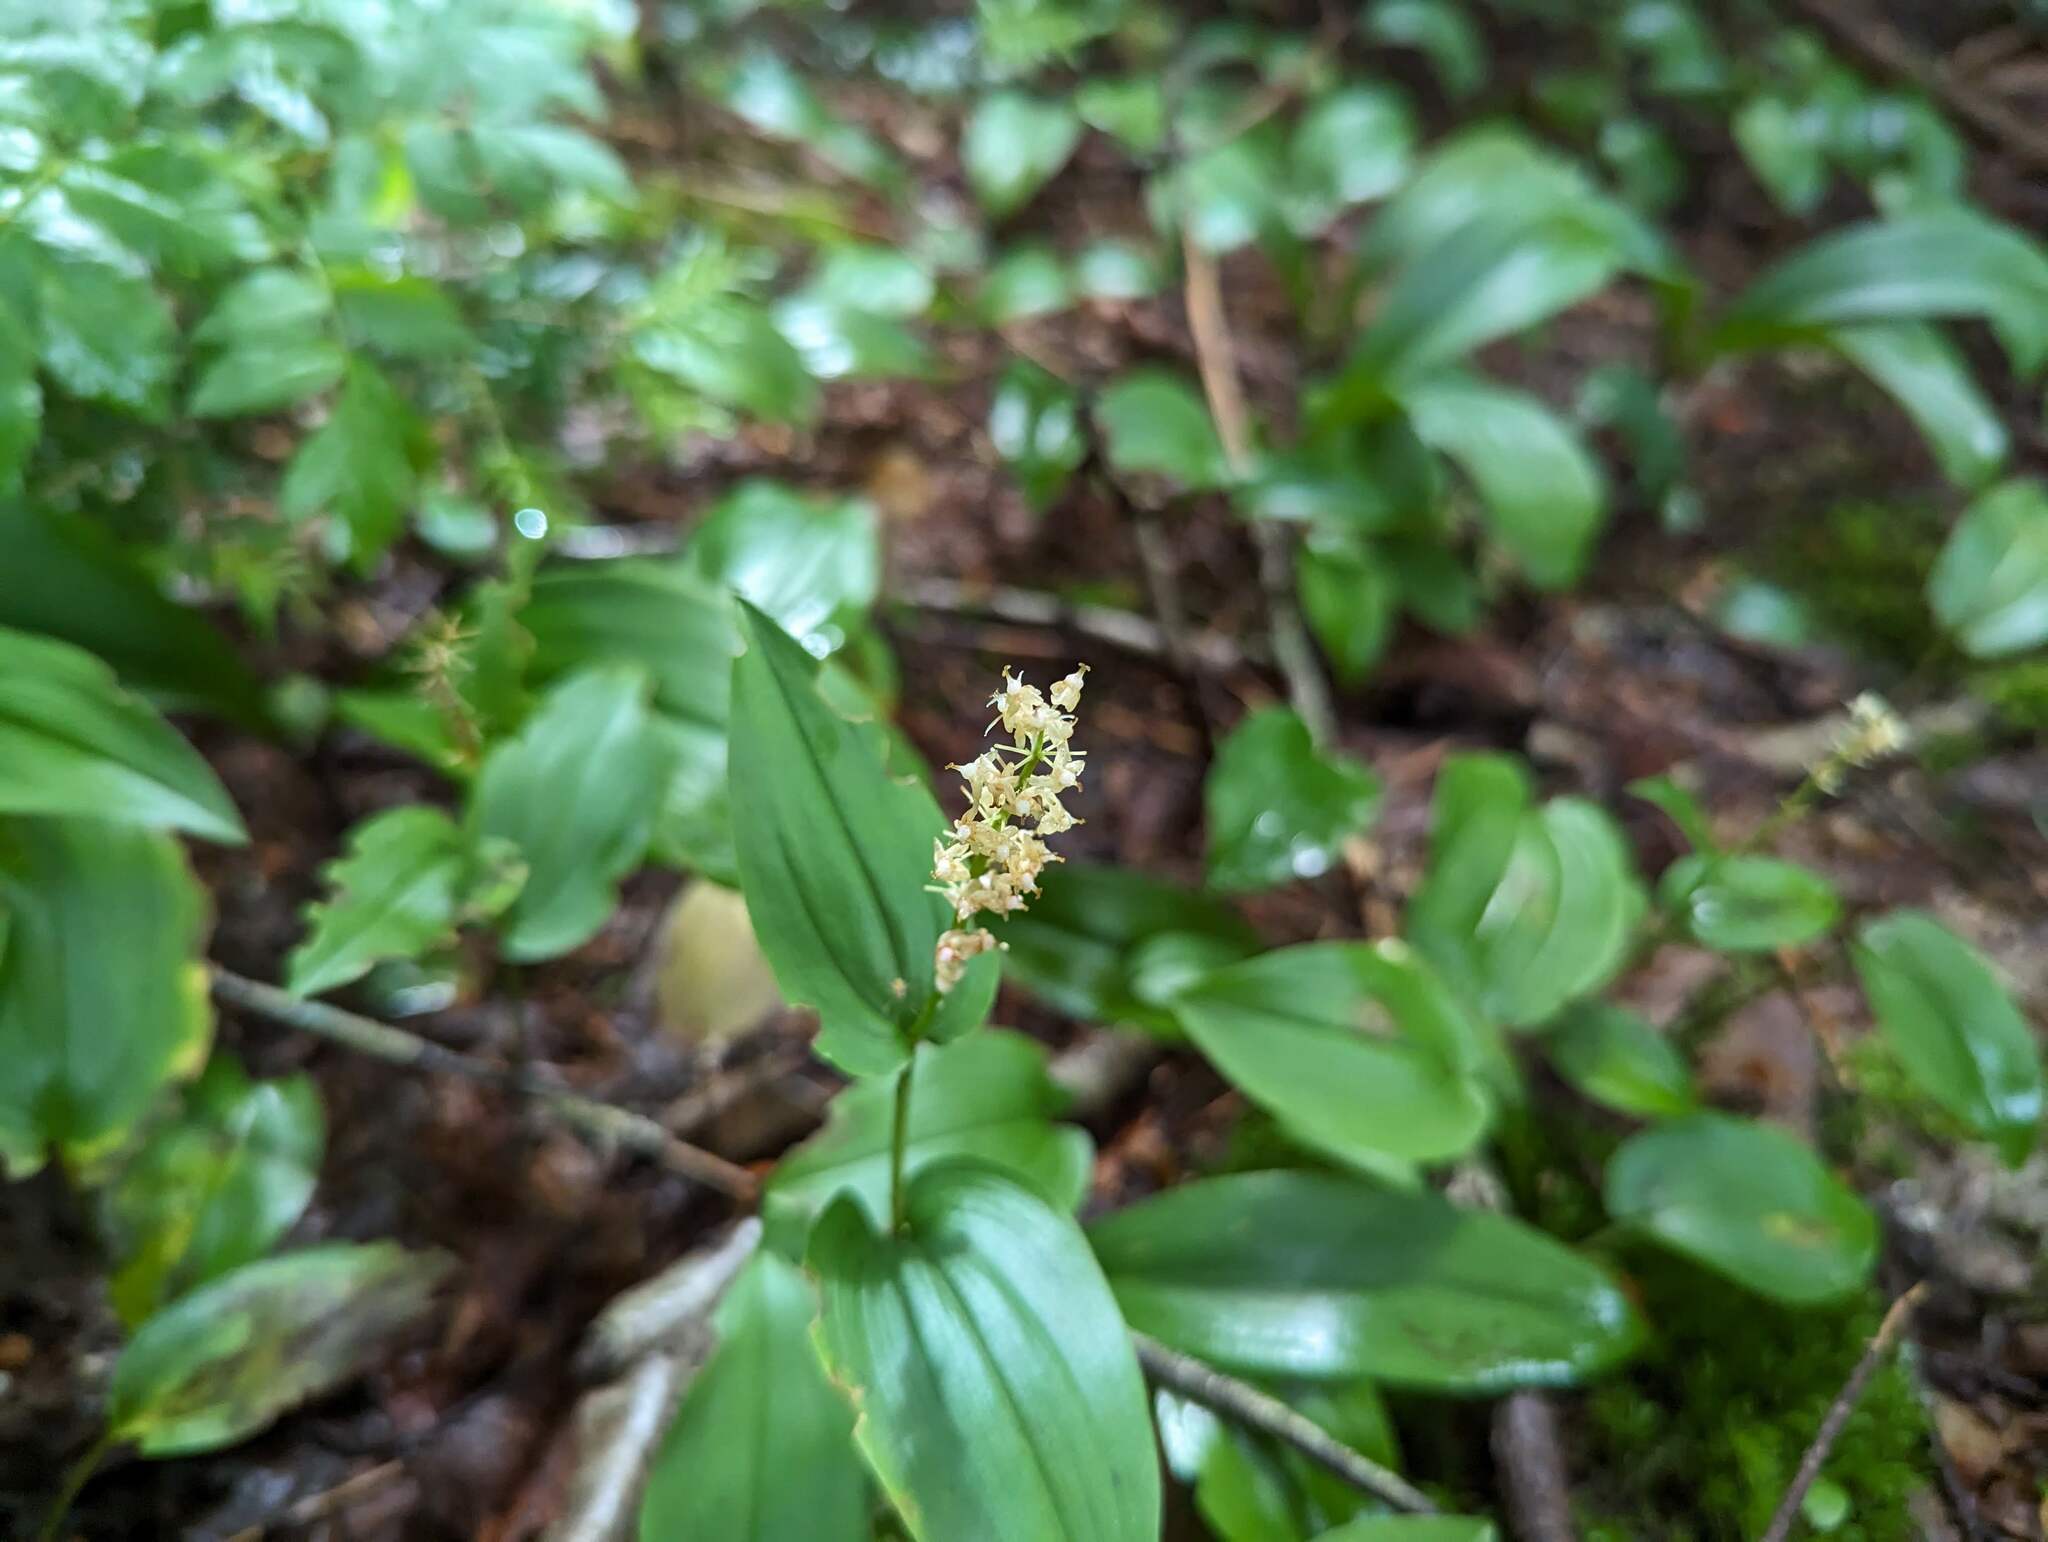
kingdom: Plantae
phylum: Tracheophyta
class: Liliopsida
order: Asparagales
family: Asparagaceae
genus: Maianthemum
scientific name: Maianthemum canadense
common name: False lily-of-the-valley
